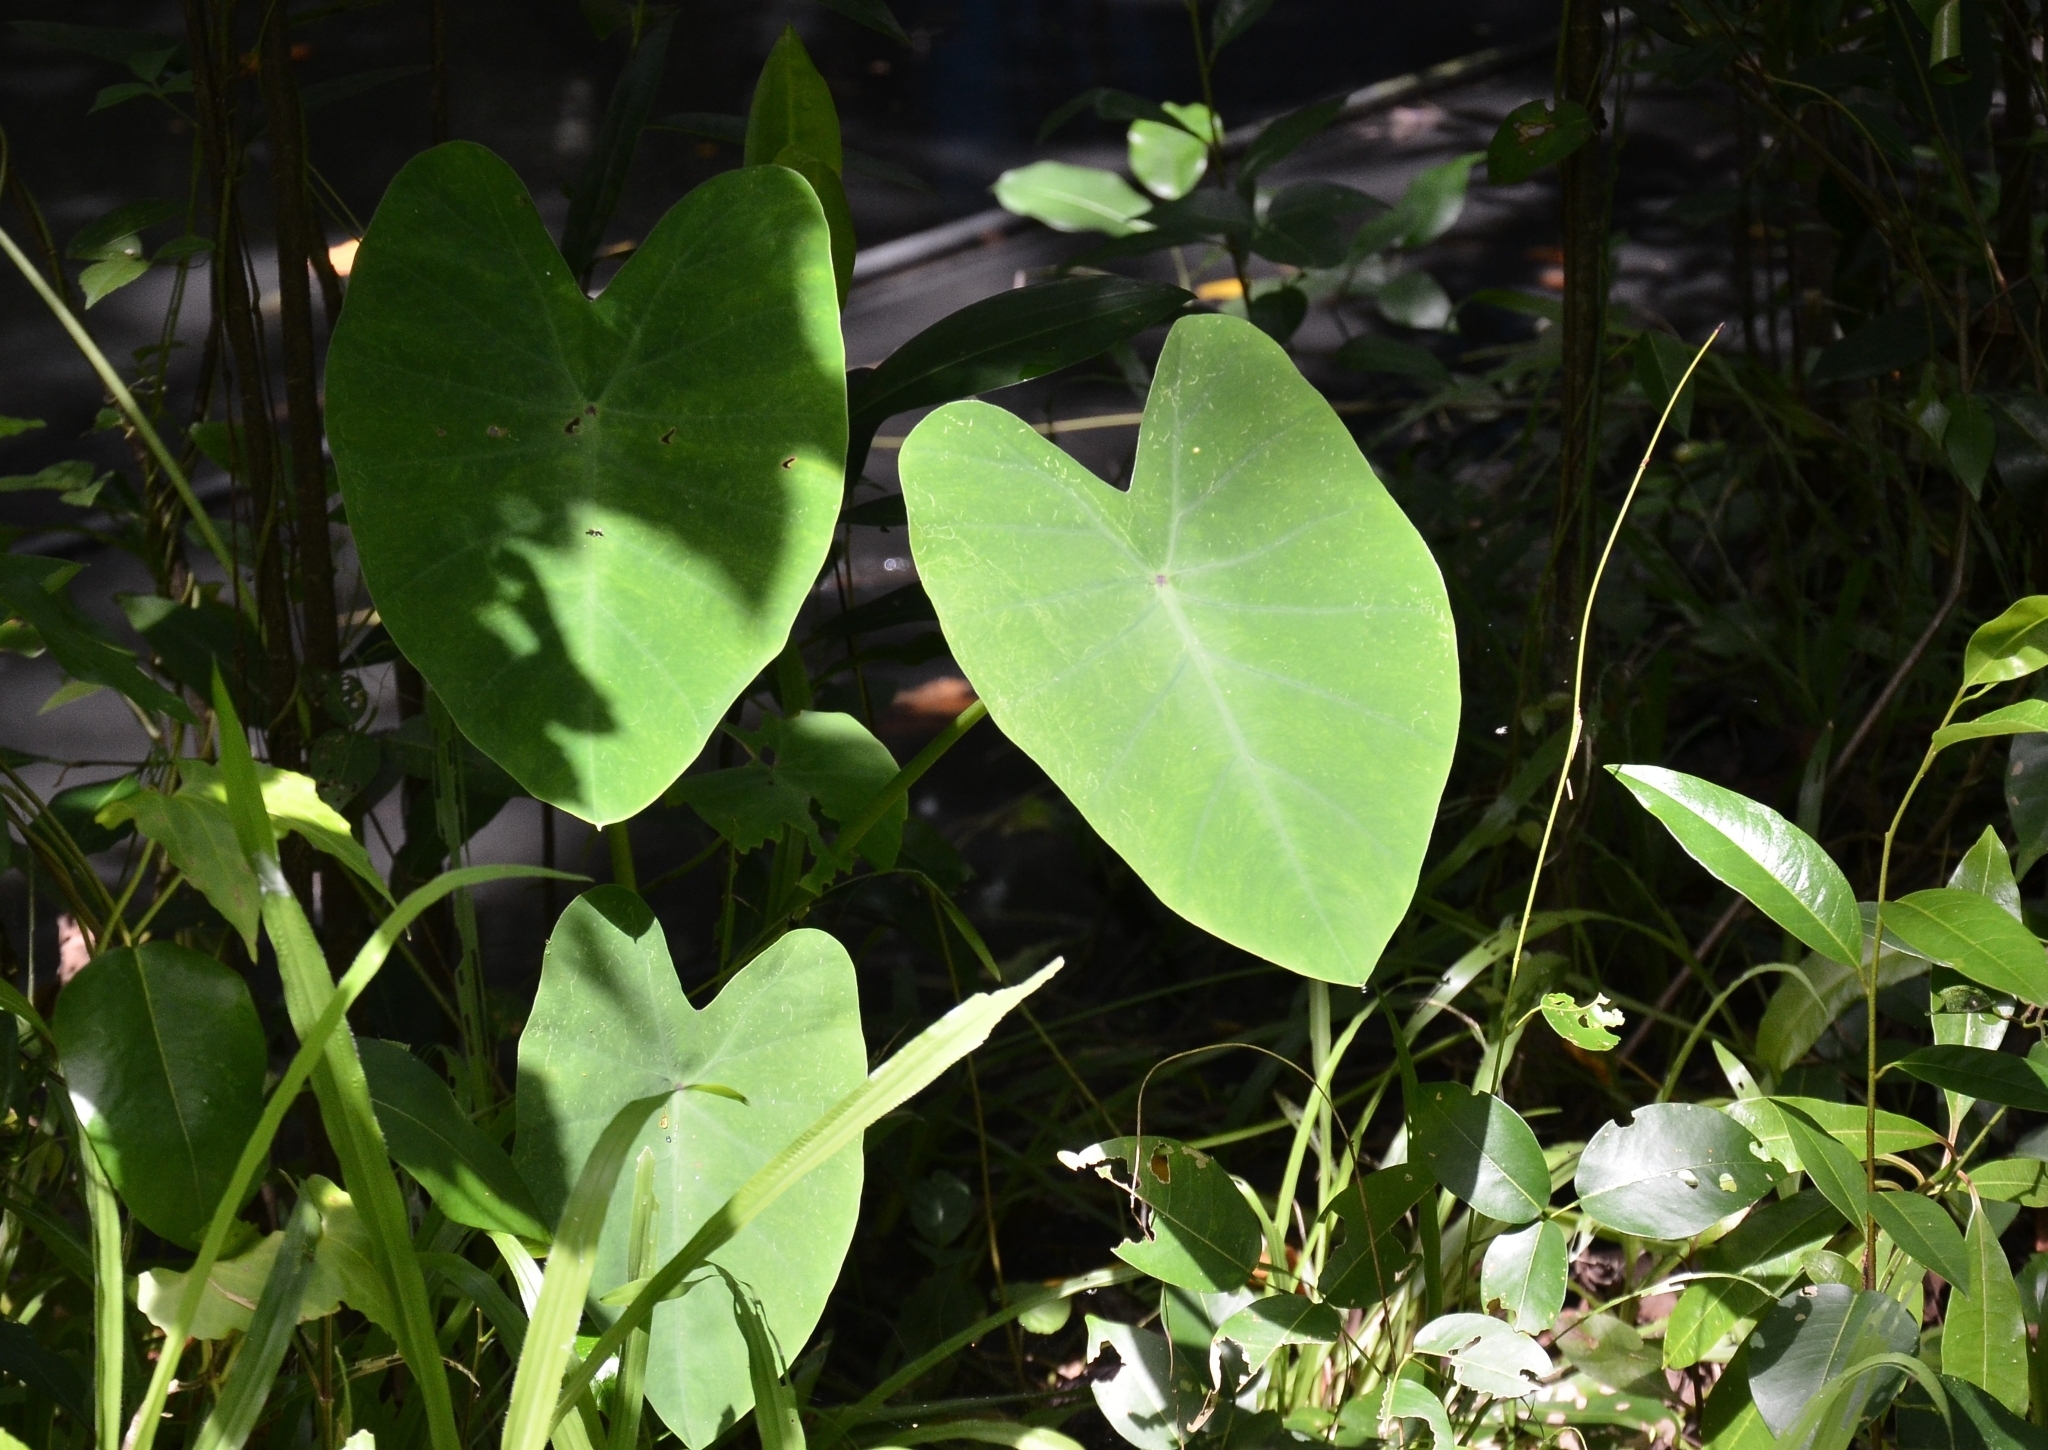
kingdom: Plantae
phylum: Tracheophyta
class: Liliopsida
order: Alismatales
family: Araceae
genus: Colocasia
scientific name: Colocasia esculenta
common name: Taro
